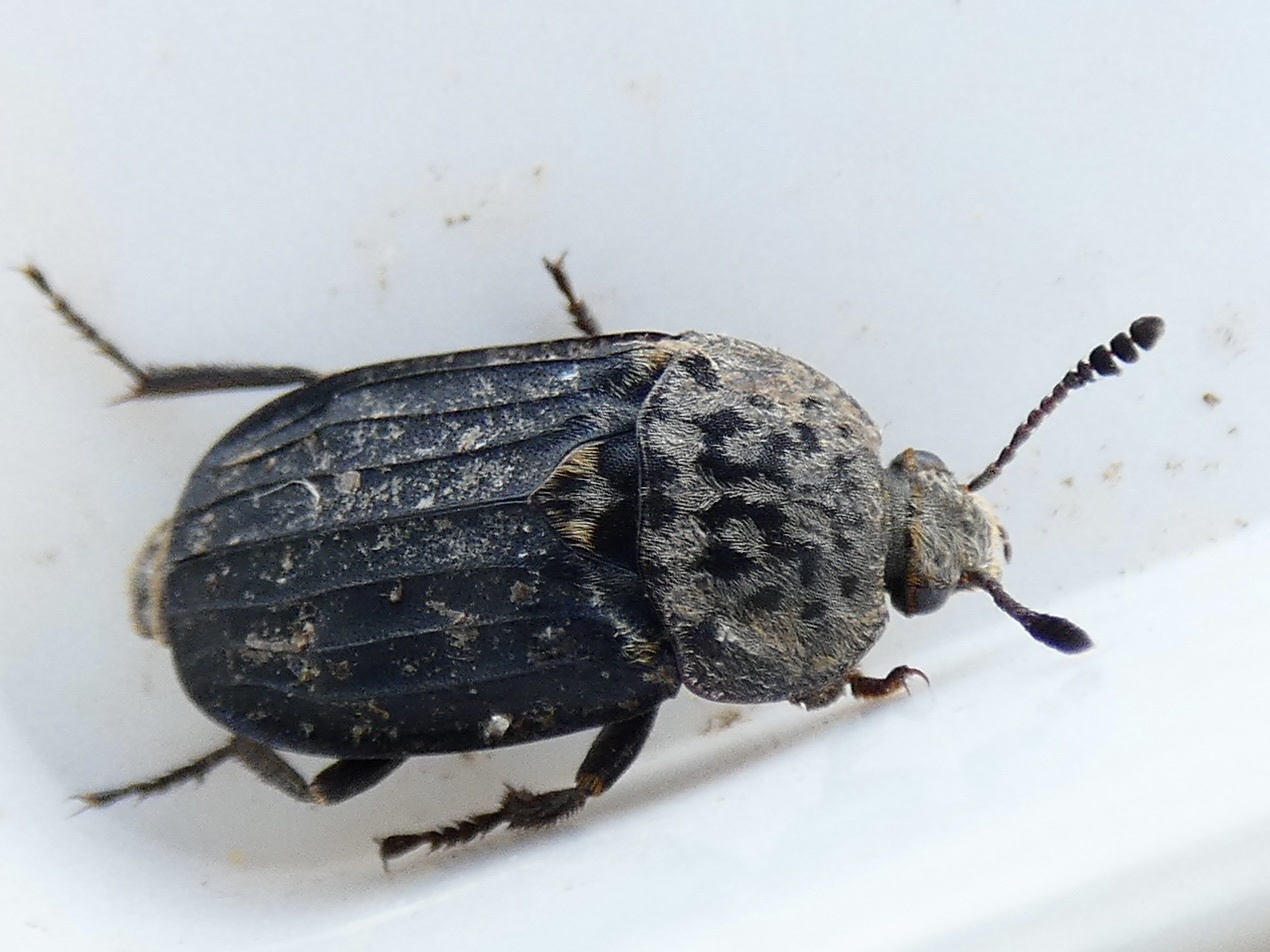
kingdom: Animalia
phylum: Arthropoda
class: Insecta
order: Coleoptera
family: Staphylinidae
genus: Thanatophilus
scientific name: Thanatophilus sinuatus
